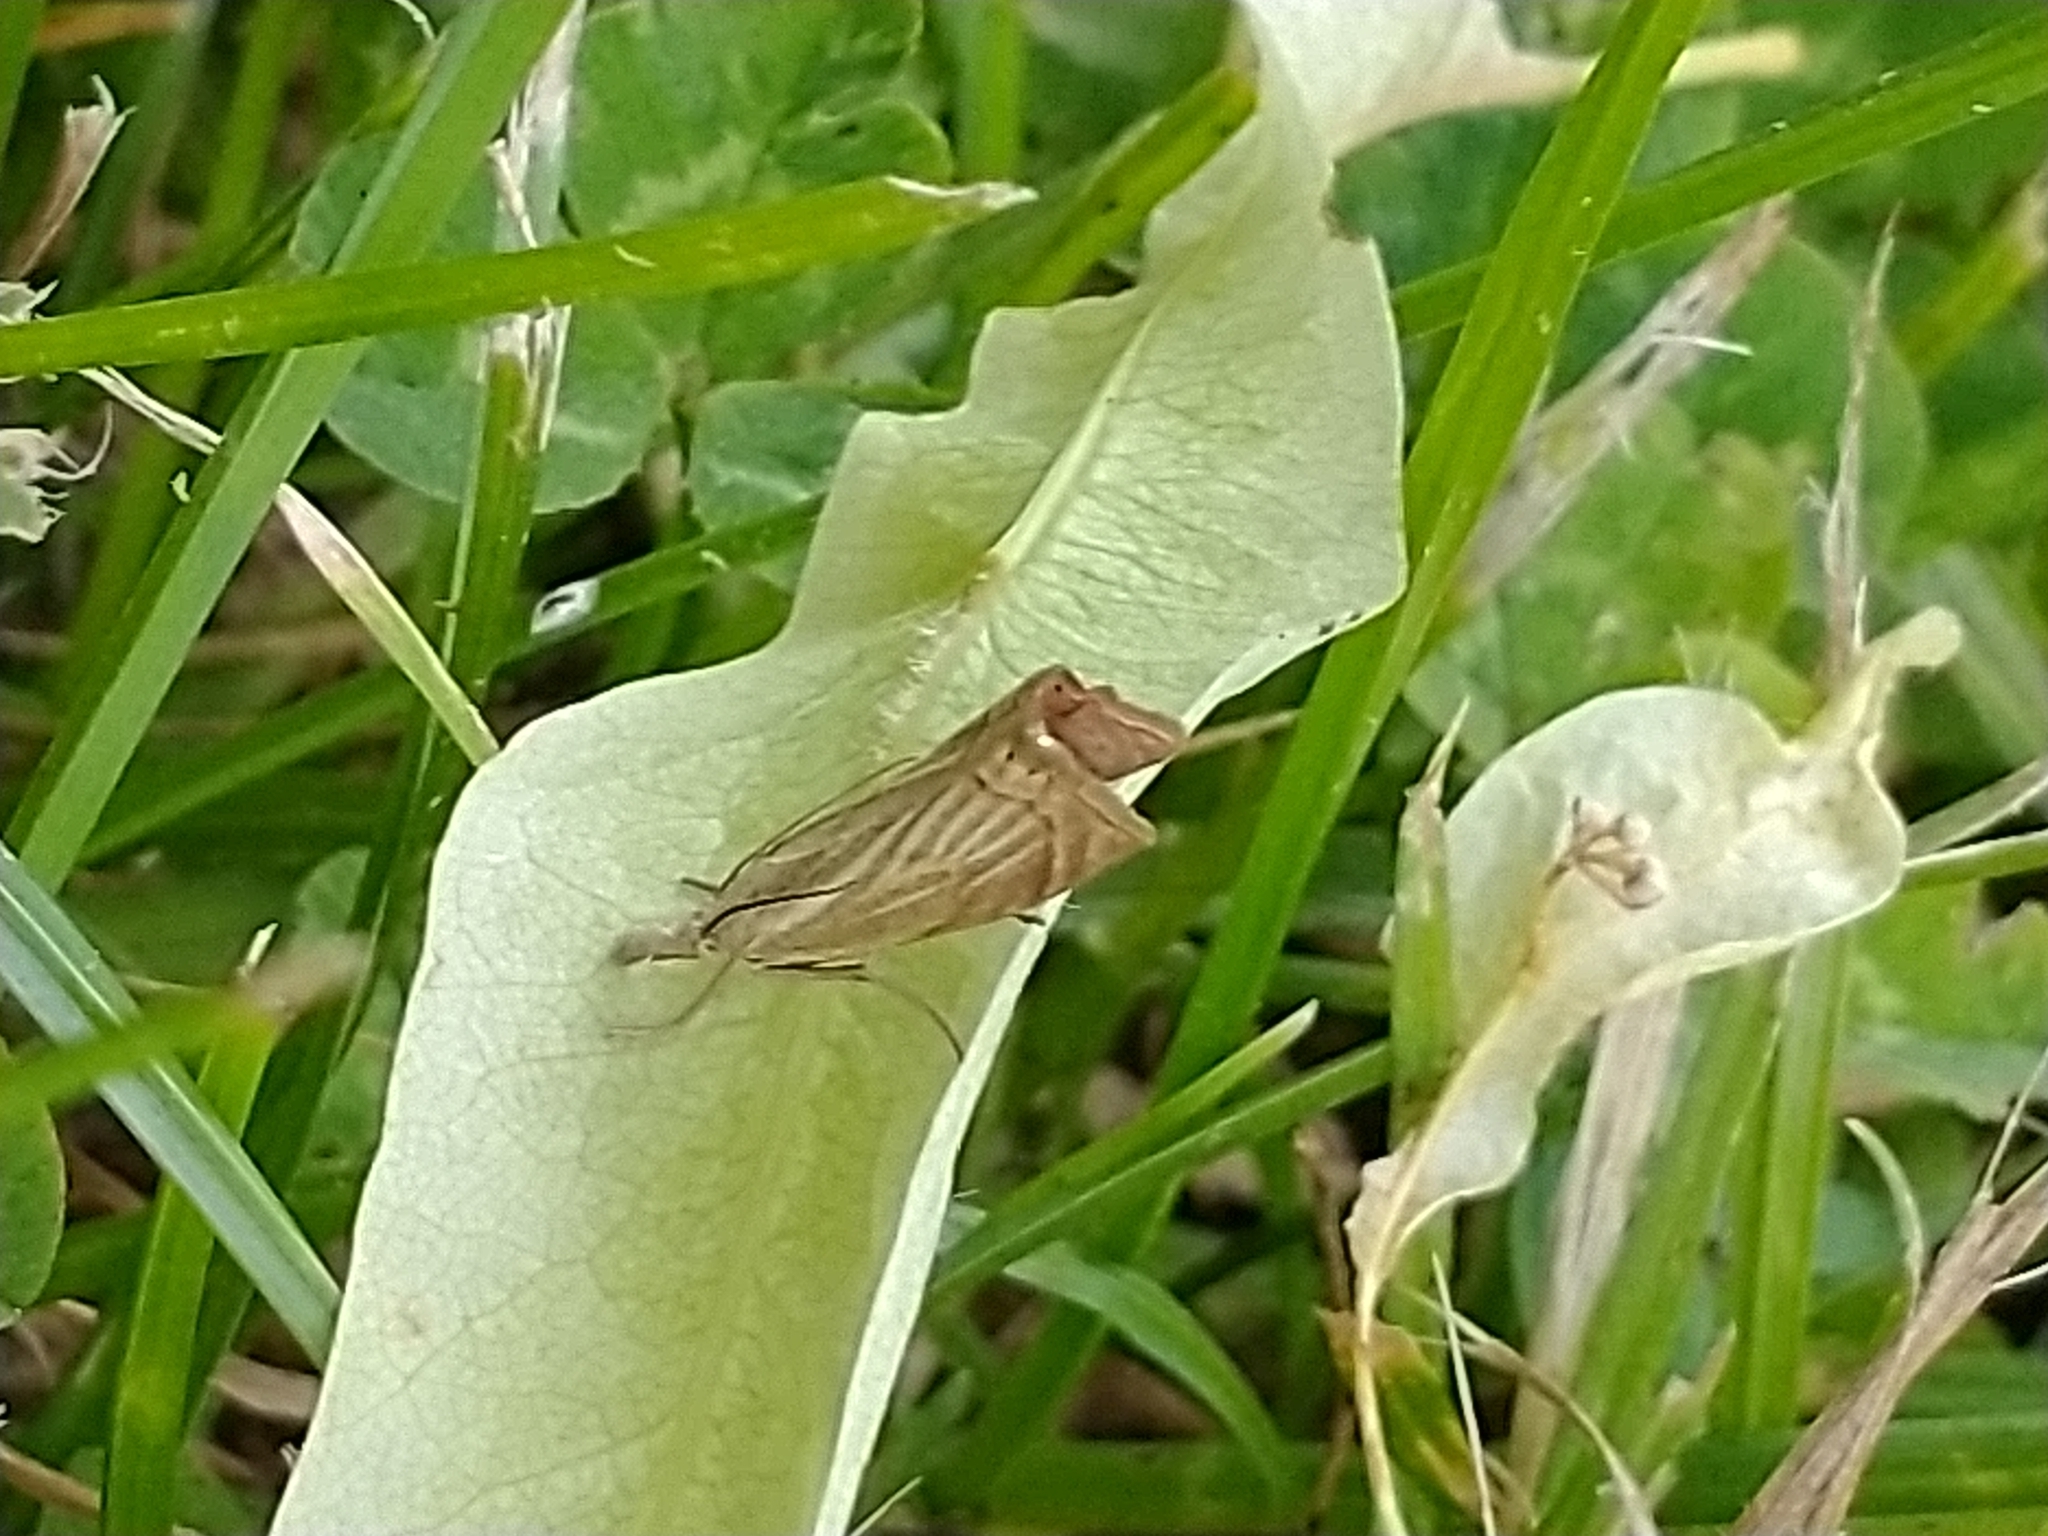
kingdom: Animalia
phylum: Arthropoda
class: Insecta
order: Lepidoptera
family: Crambidae
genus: Chrysoteuchia
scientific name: Chrysoteuchia culmella
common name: Garden grass-veneer
